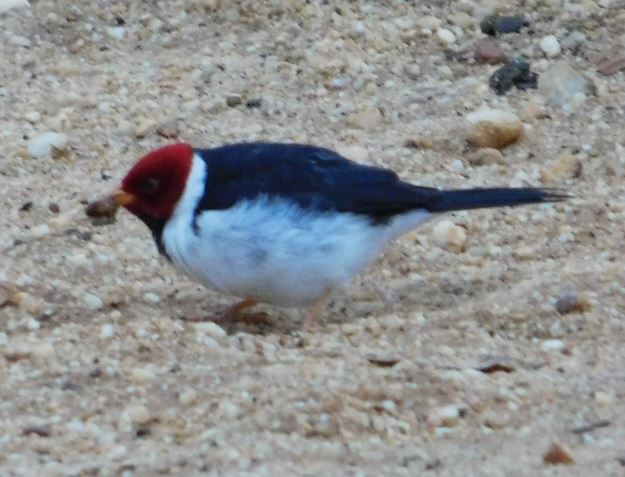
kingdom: Animalia
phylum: Chordata
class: Aves
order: Passeriformes
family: Thraupidae
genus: Paroaria
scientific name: Paroaria capitata
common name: Yellow-billed cardinal
